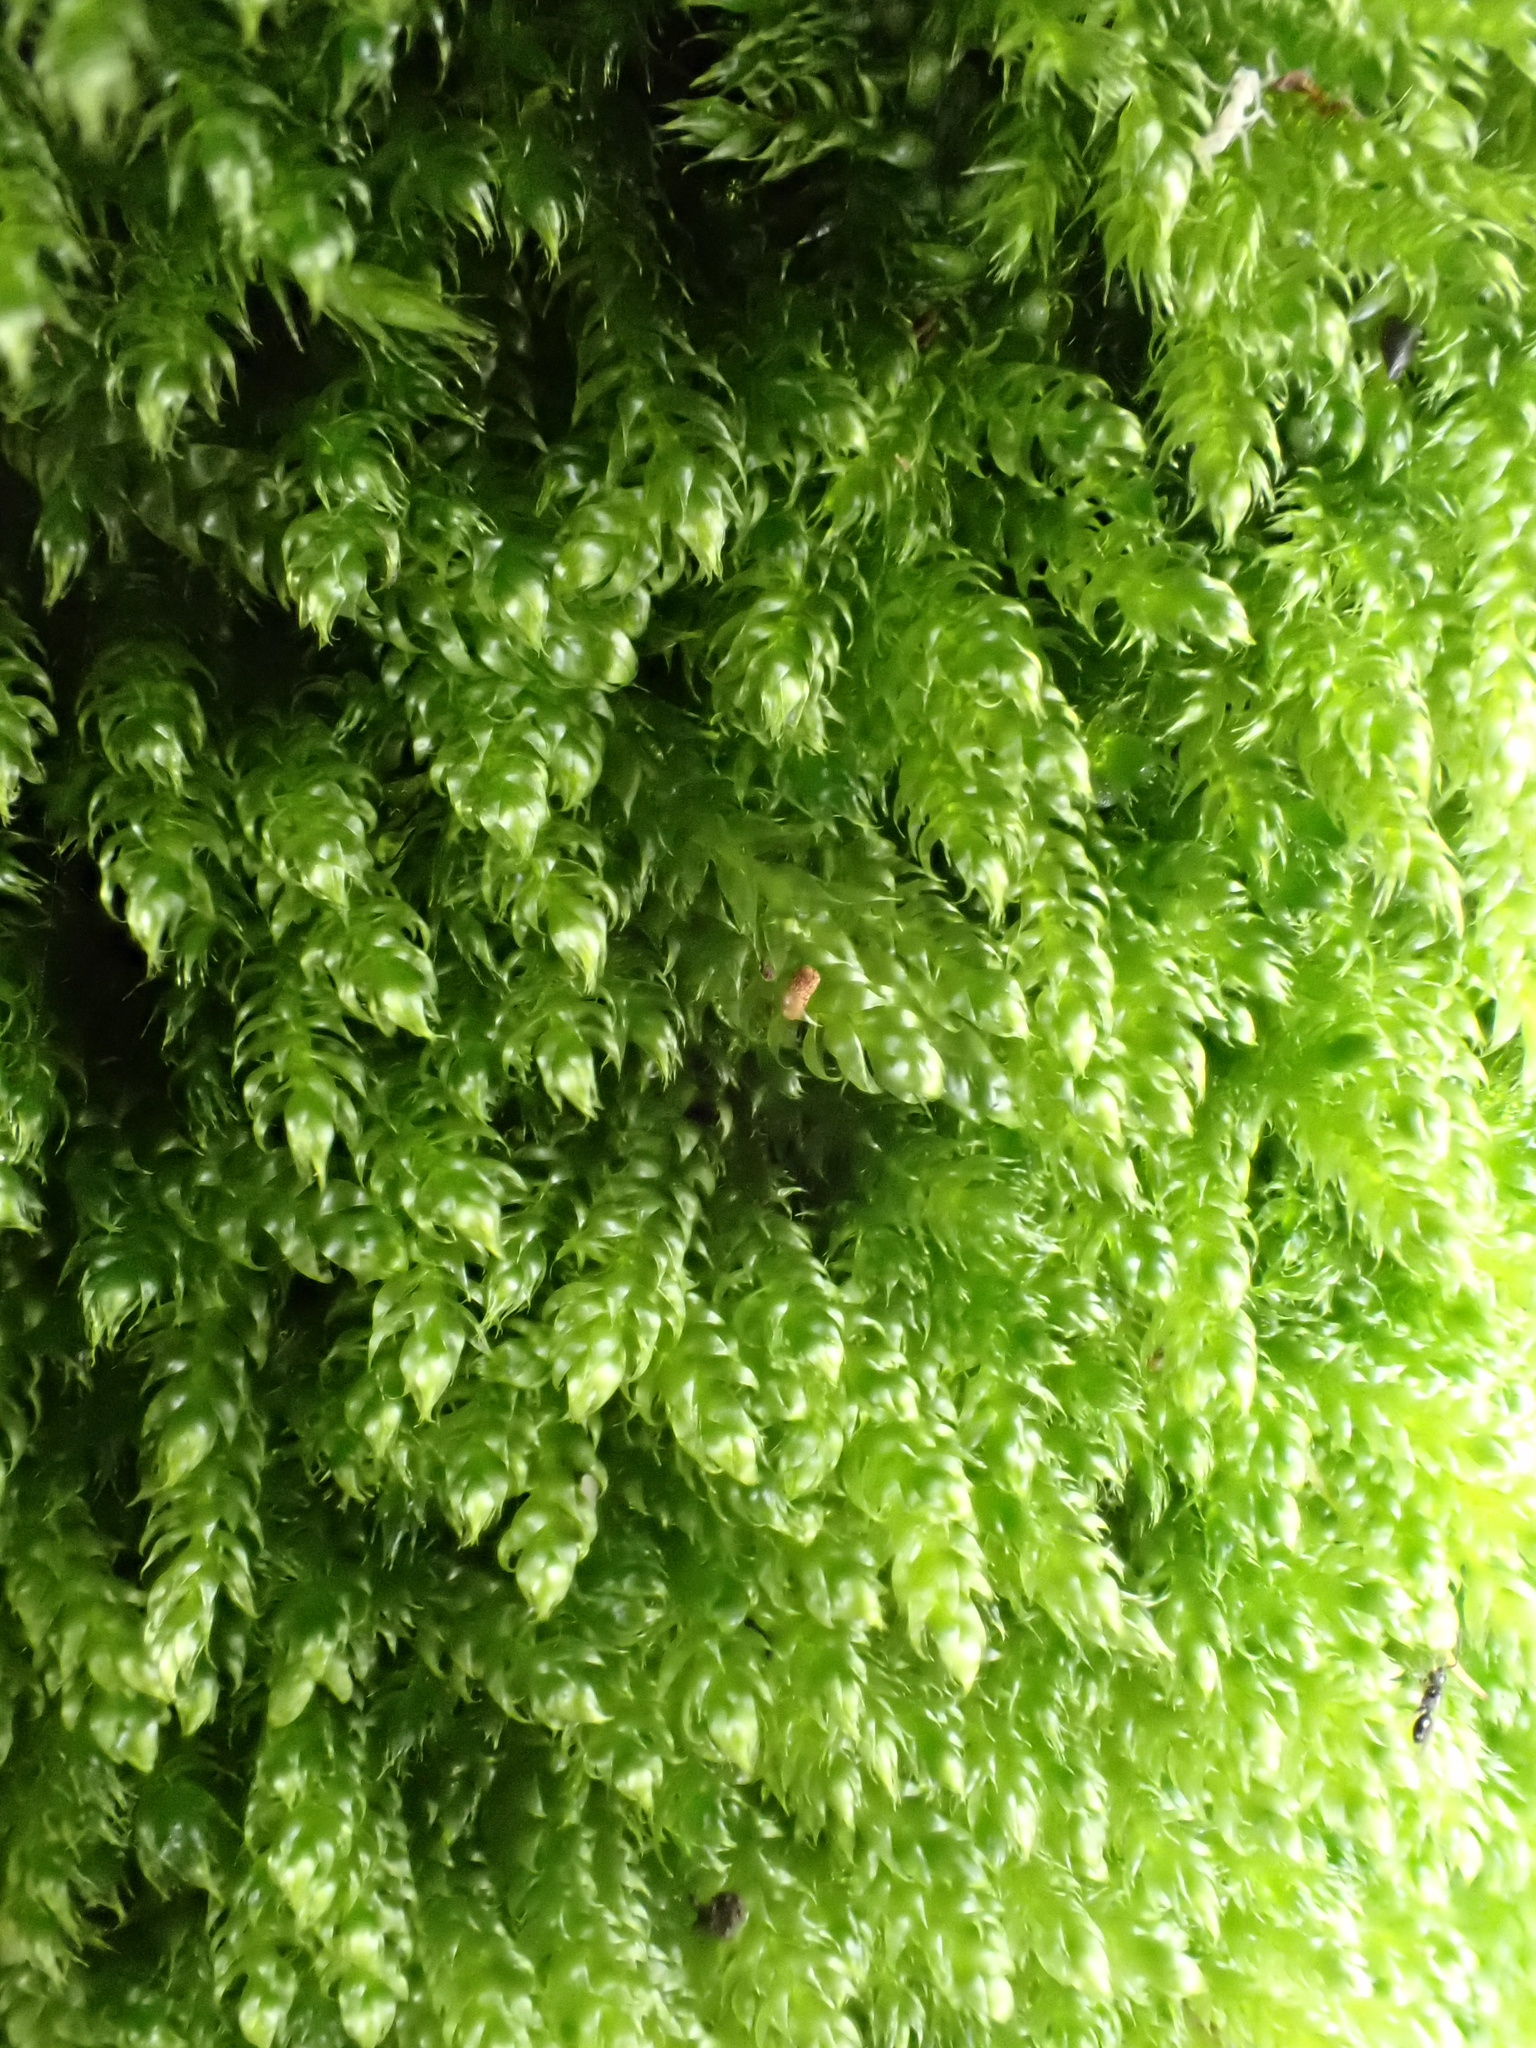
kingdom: Plantae
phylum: Bryophyta
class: Bryopsida
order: Hypnales
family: Hypnaceae
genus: Hypnum
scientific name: Hypnum cupressiforme
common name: Cypress-leaved plait-moss
